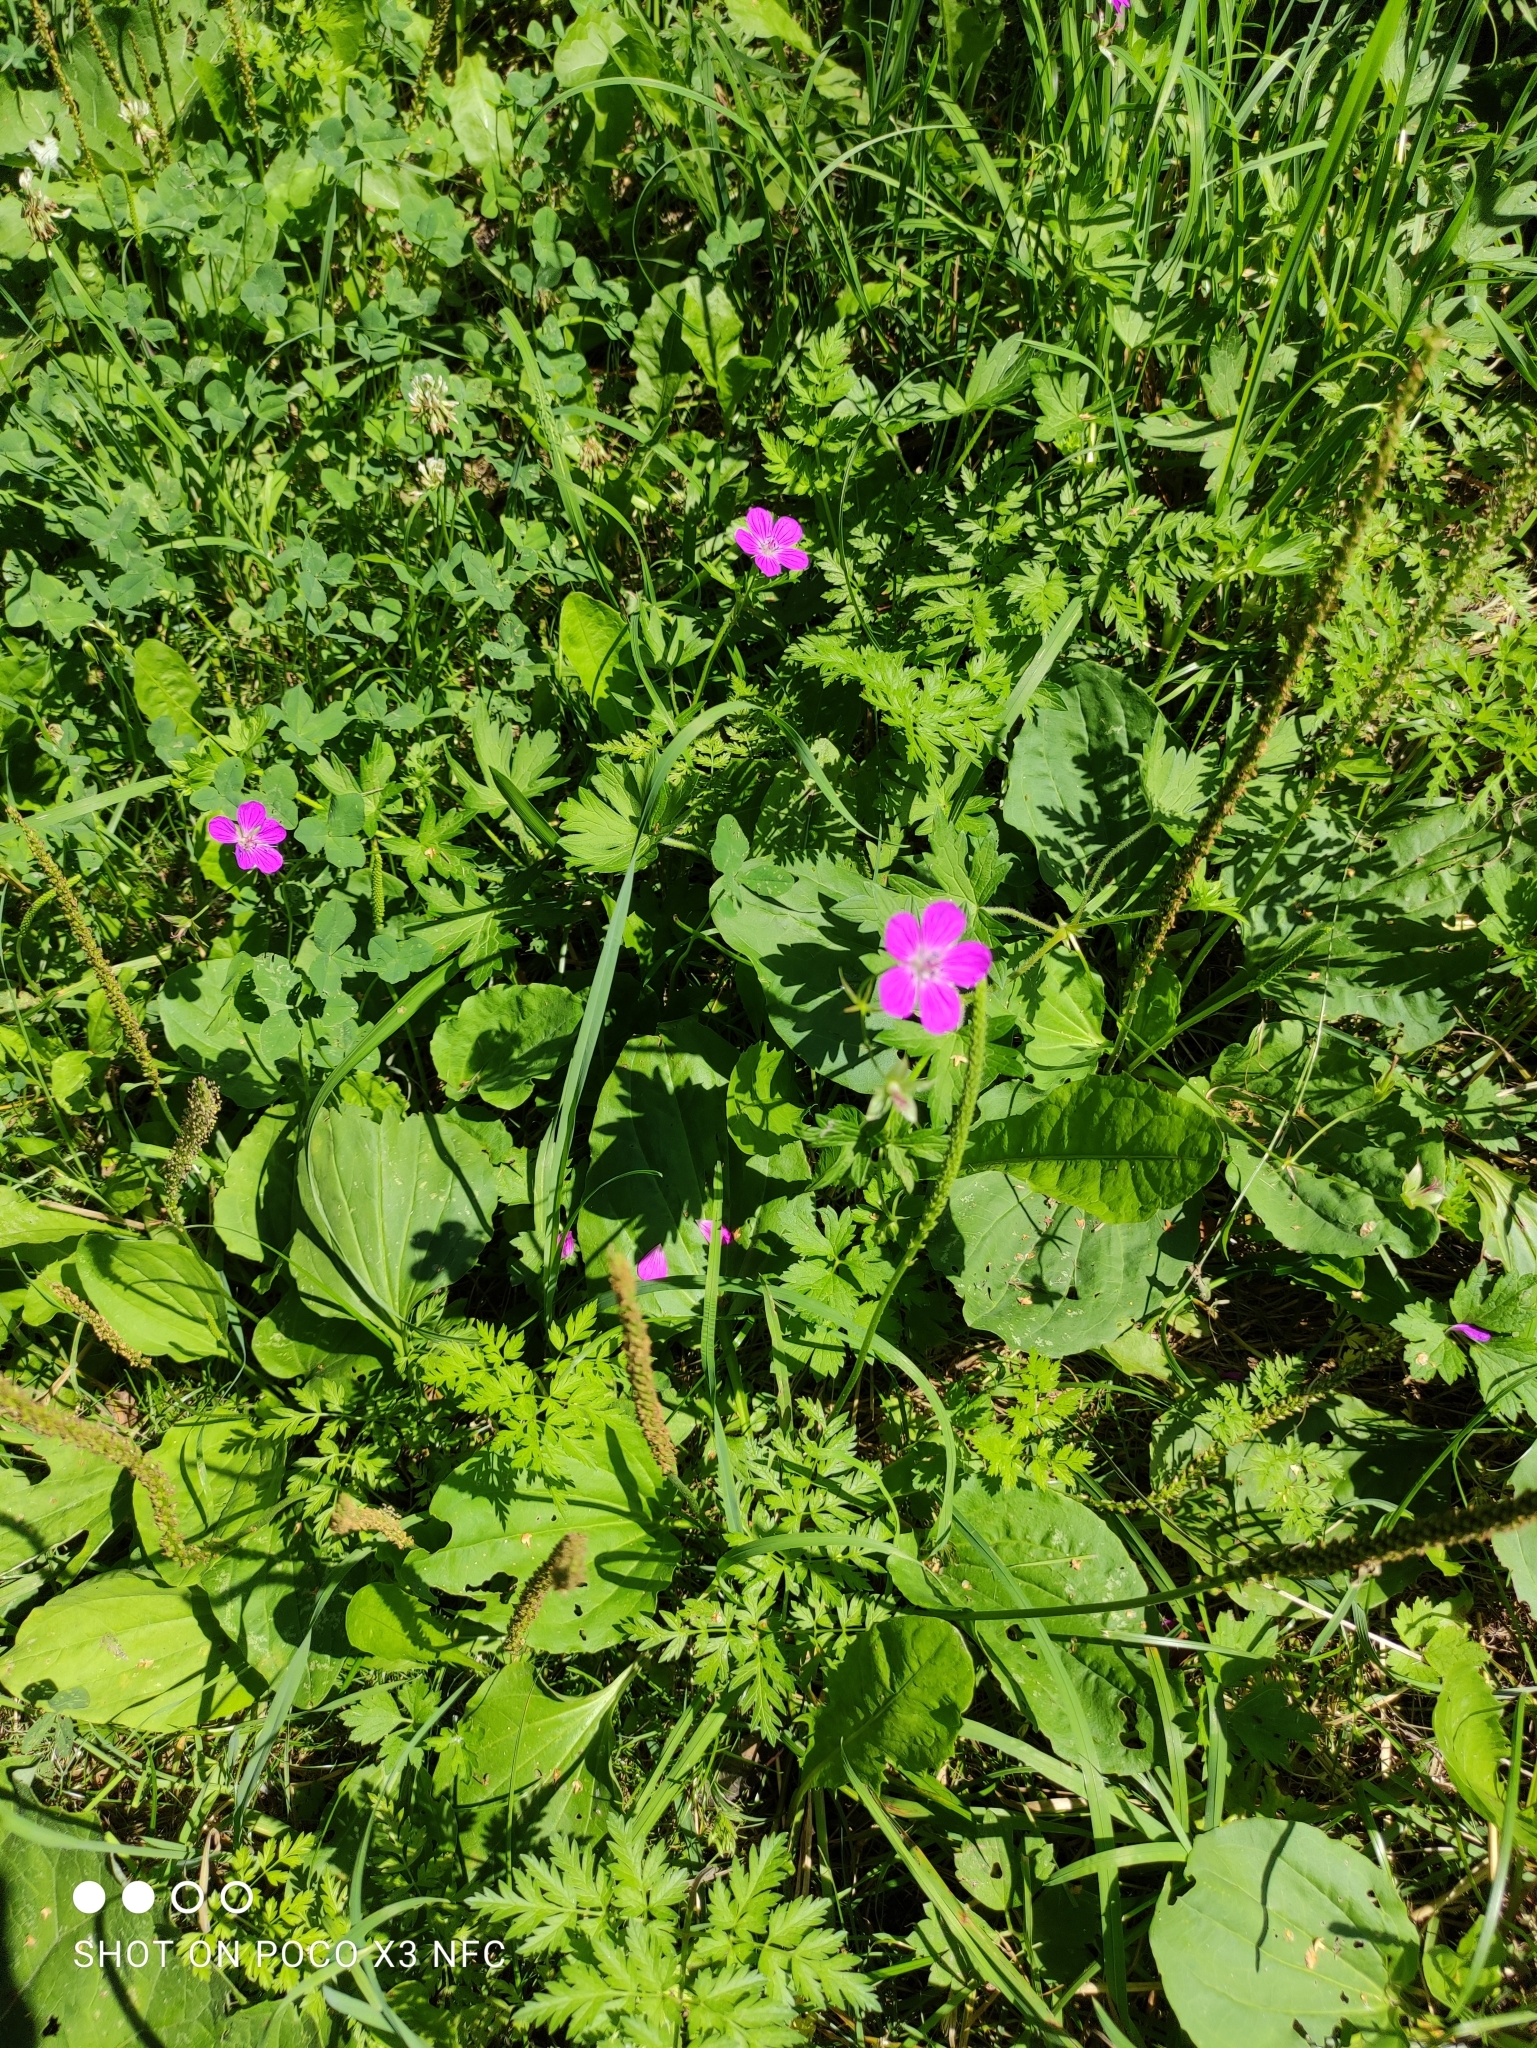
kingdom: Plantae
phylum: Tracheophyta
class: Magnoliopsida
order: Geraniales
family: Geraniaceae
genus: Geranium
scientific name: Geranium palustre
